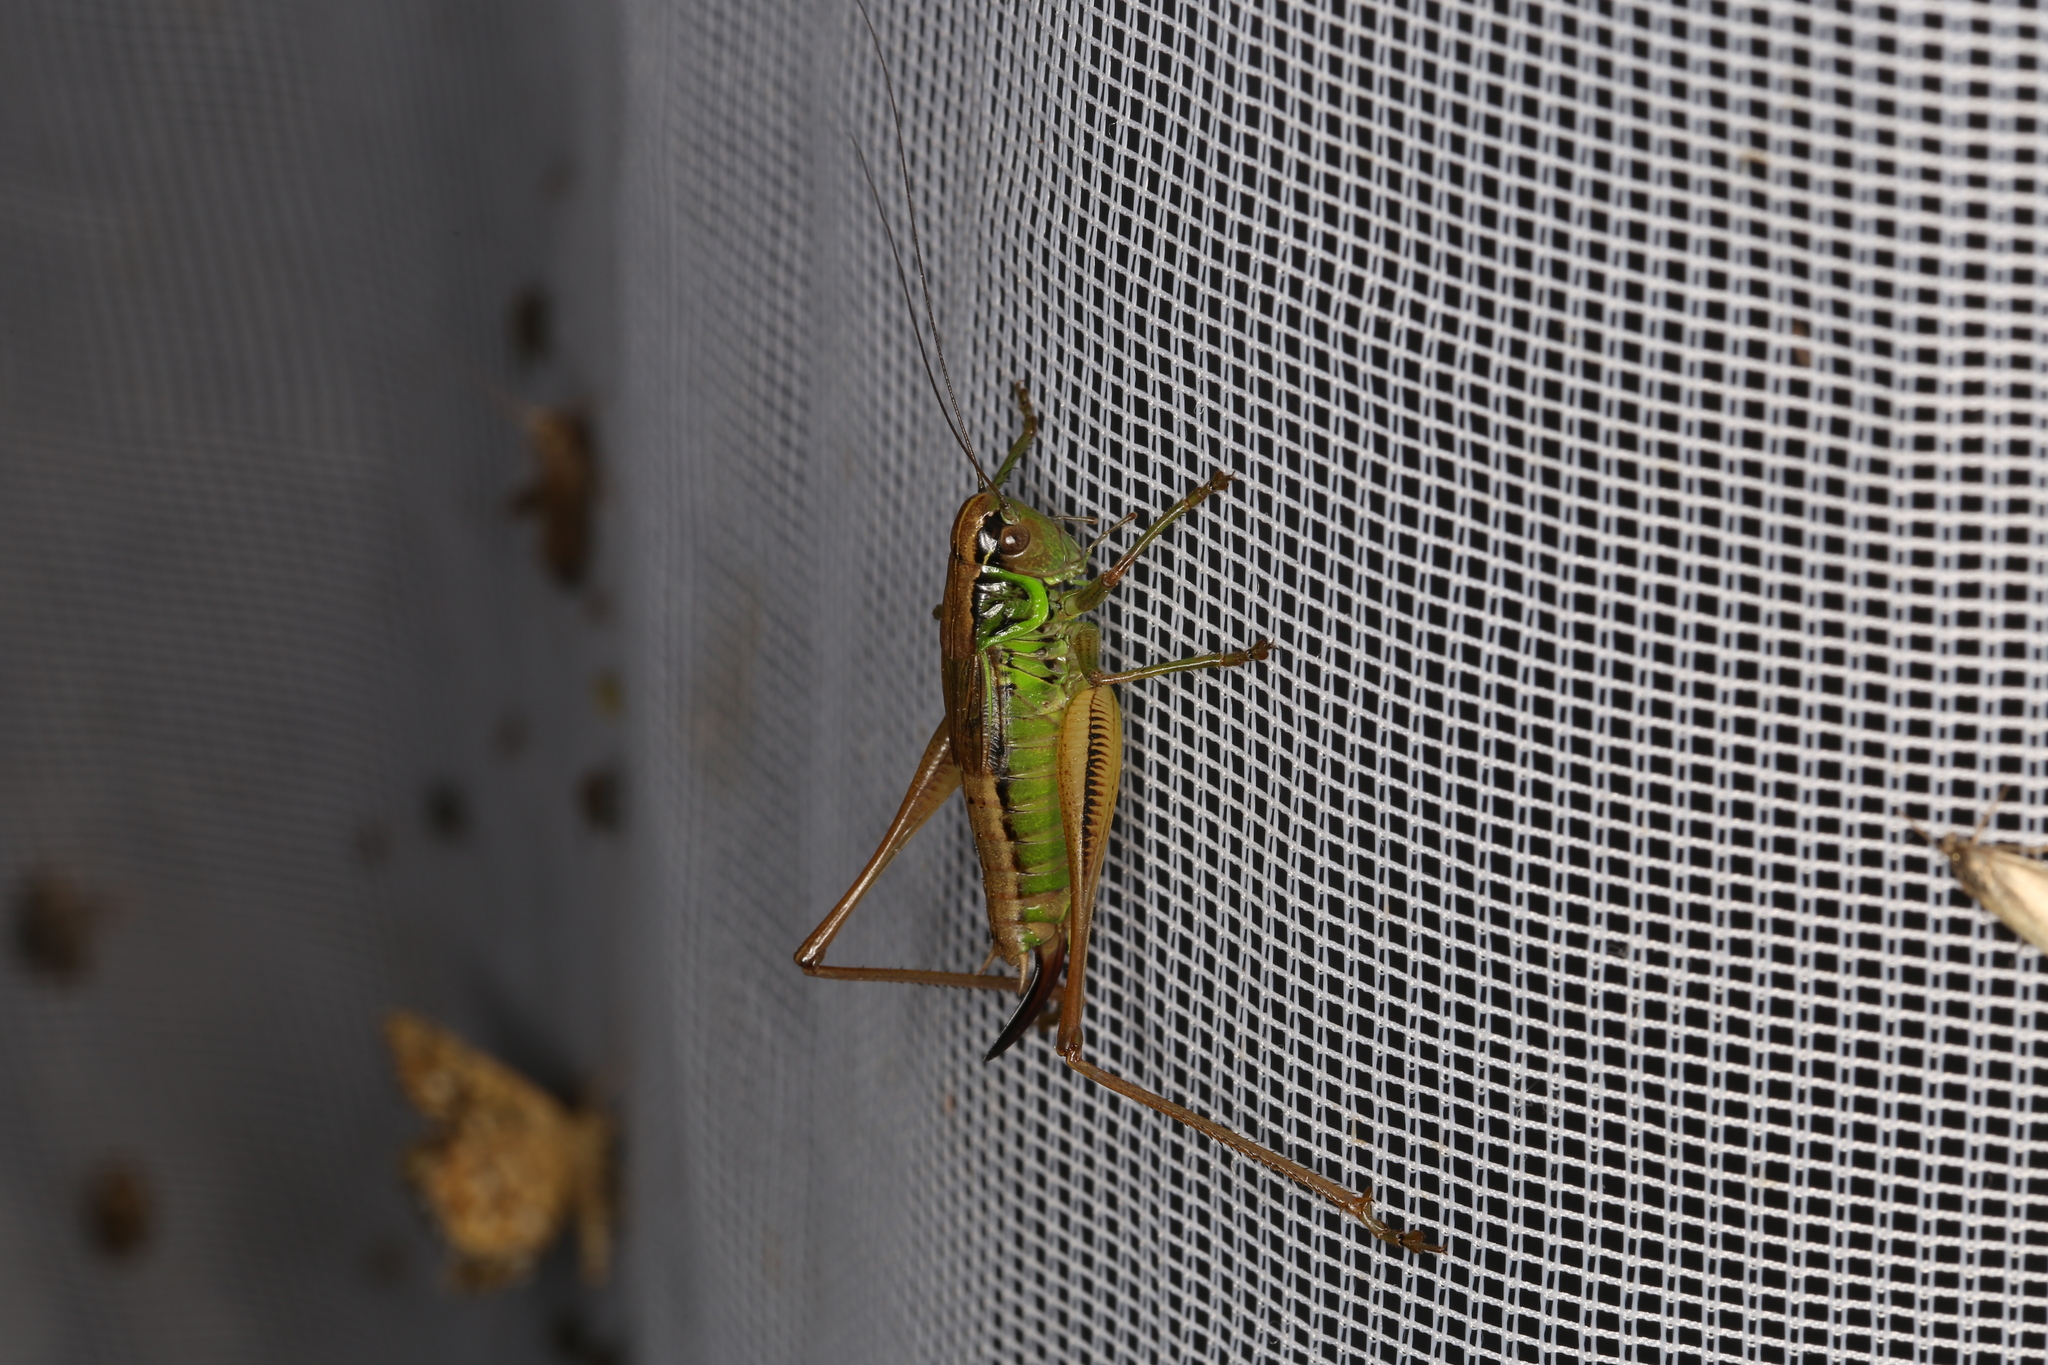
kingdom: Animalia
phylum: Arthropoda
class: Insecta
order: Orthoptera
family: Tettigoniidae
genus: Roeseliana
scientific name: Roeseliana roeselii
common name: Roesel's bush cricket
